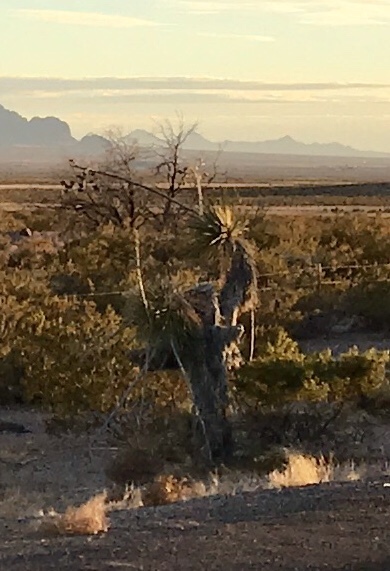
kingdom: Plantae
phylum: Tracheophyta
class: Liliopsida
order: Asparagales
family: Asparagaceae
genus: Yucca
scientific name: Yucca elata
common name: Palmella
